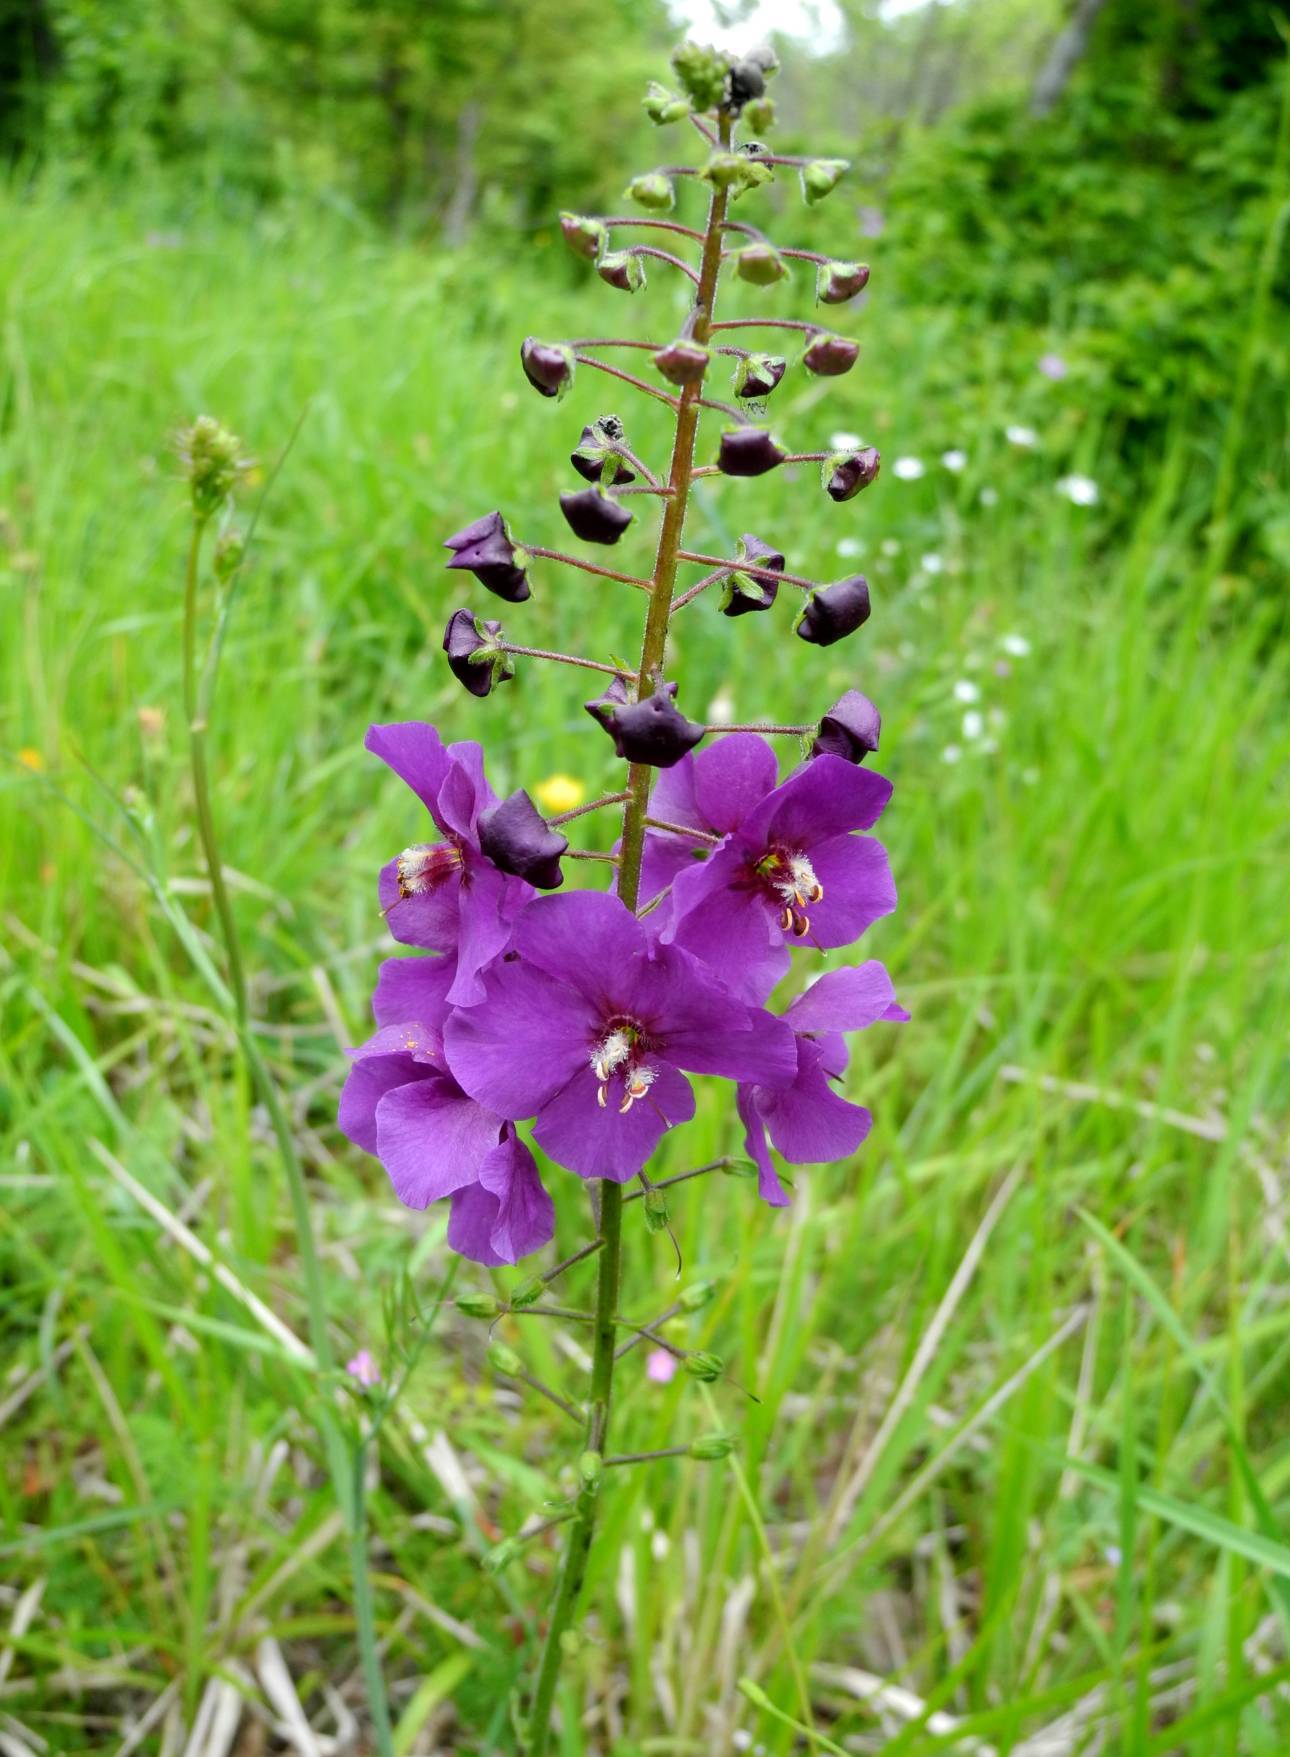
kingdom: Plantae
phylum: Tracheophyta
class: Magnoliopsida
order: Lamiales
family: Scrophulariaceae
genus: Verbascum
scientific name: Verbascum phoeniceum
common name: Purple mullein
